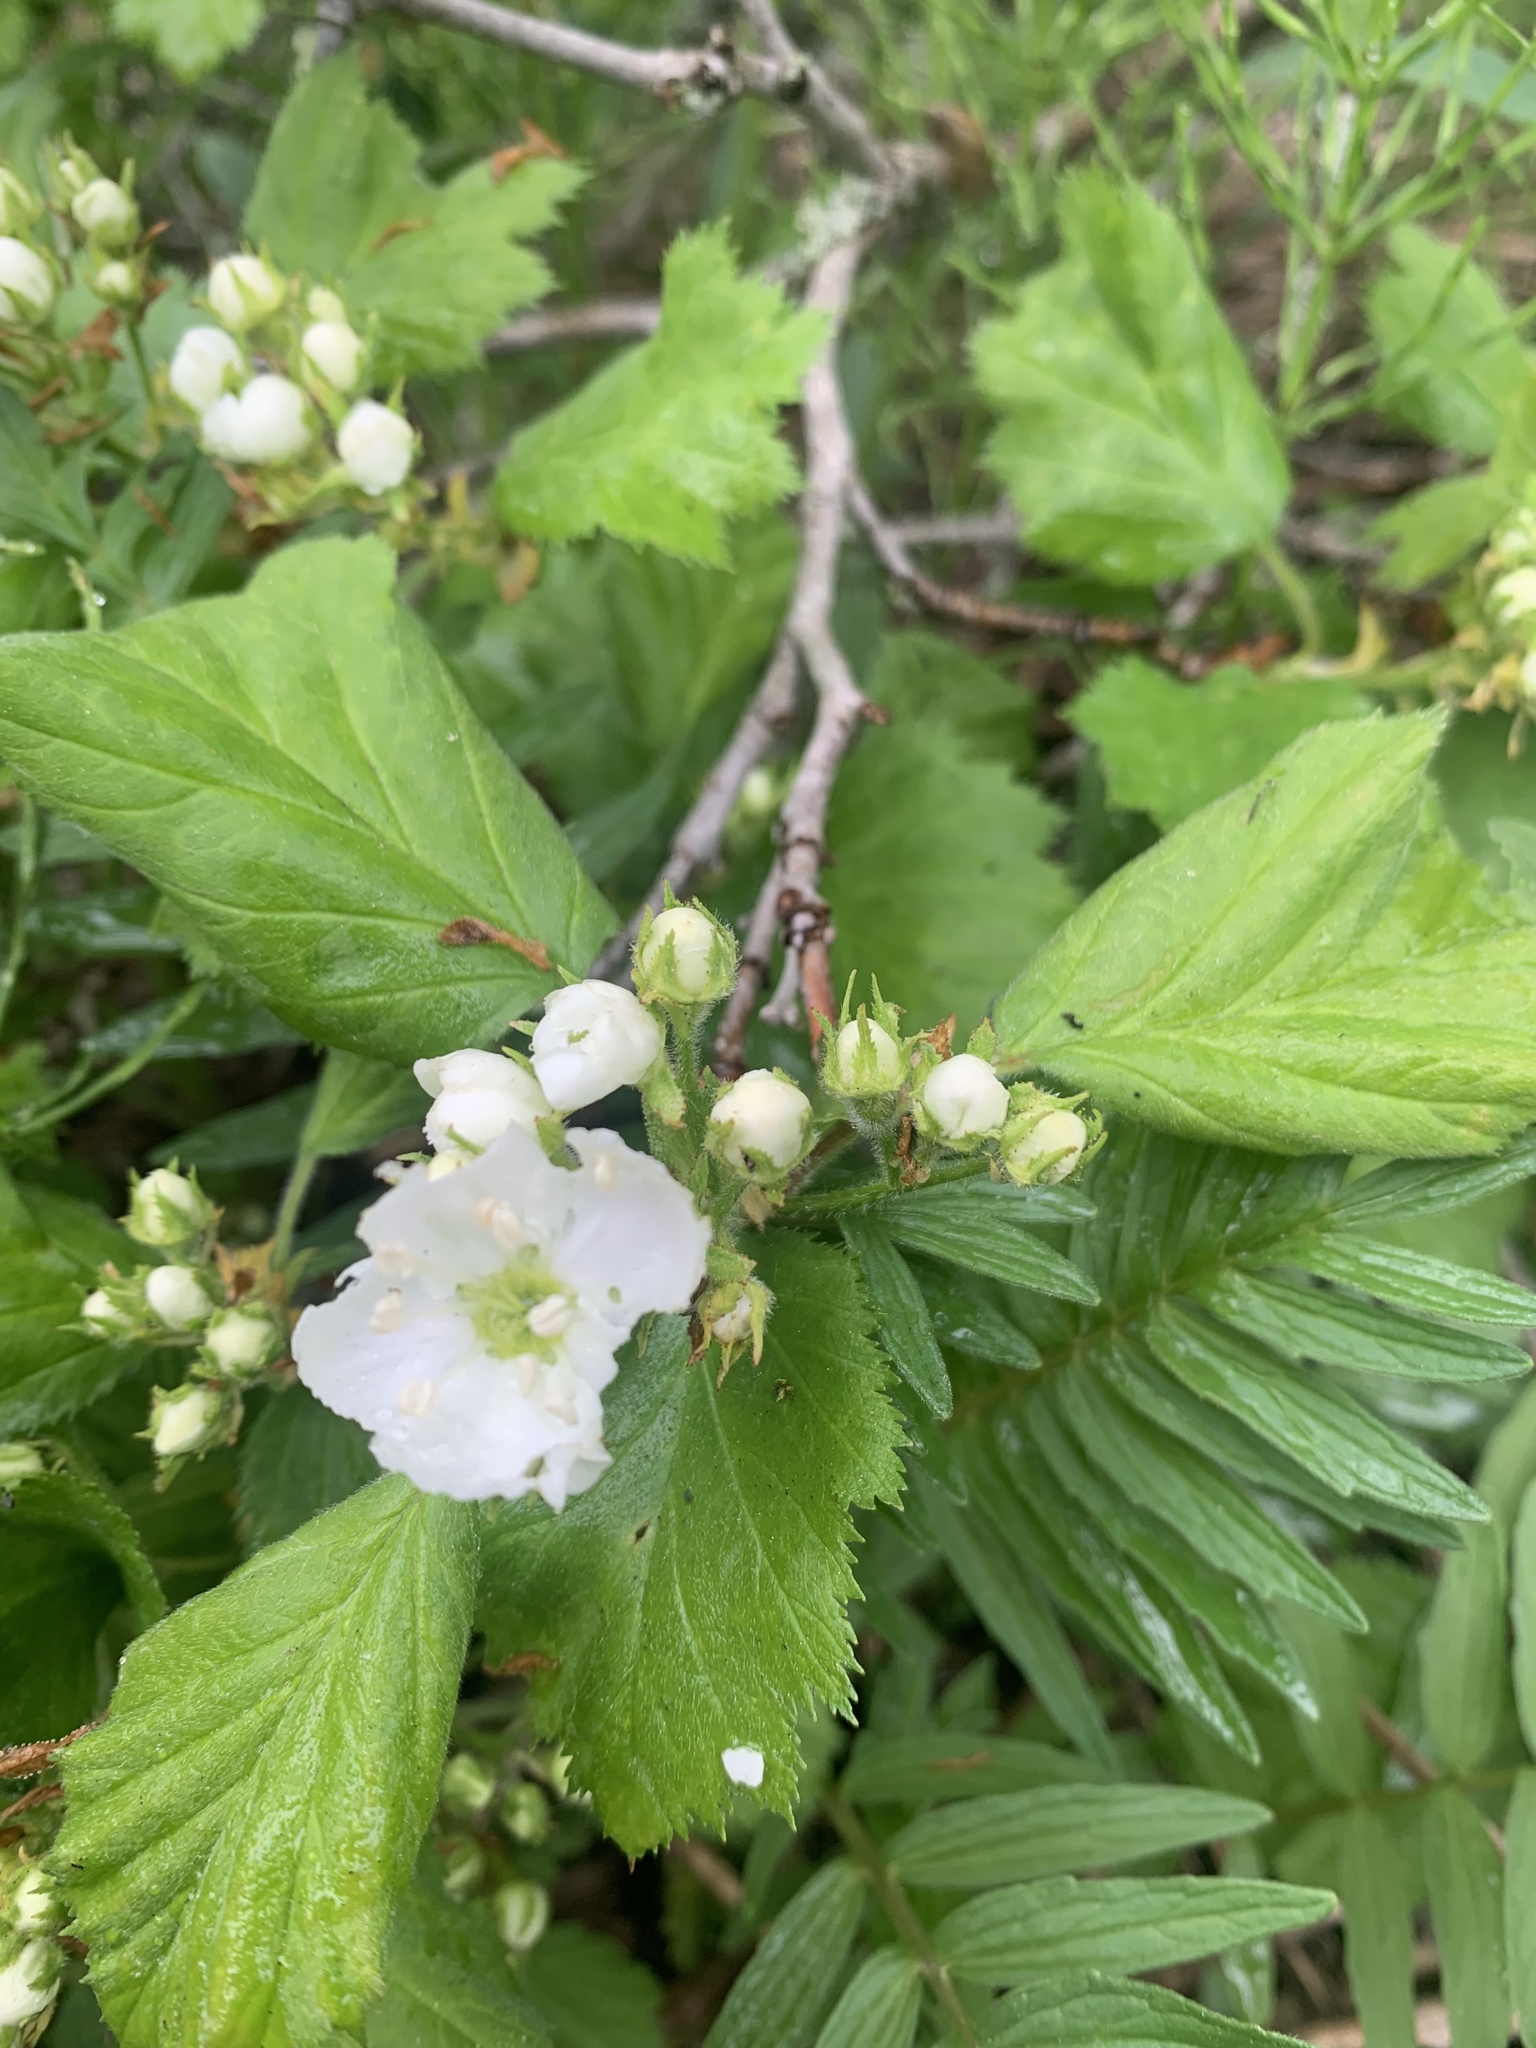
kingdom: Plantae
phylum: Tracheophyta
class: Magnoliopsida
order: Rosales
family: Rosaceae
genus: Crataegus
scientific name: Crataegus submollis
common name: Hairy cockspurthorn
